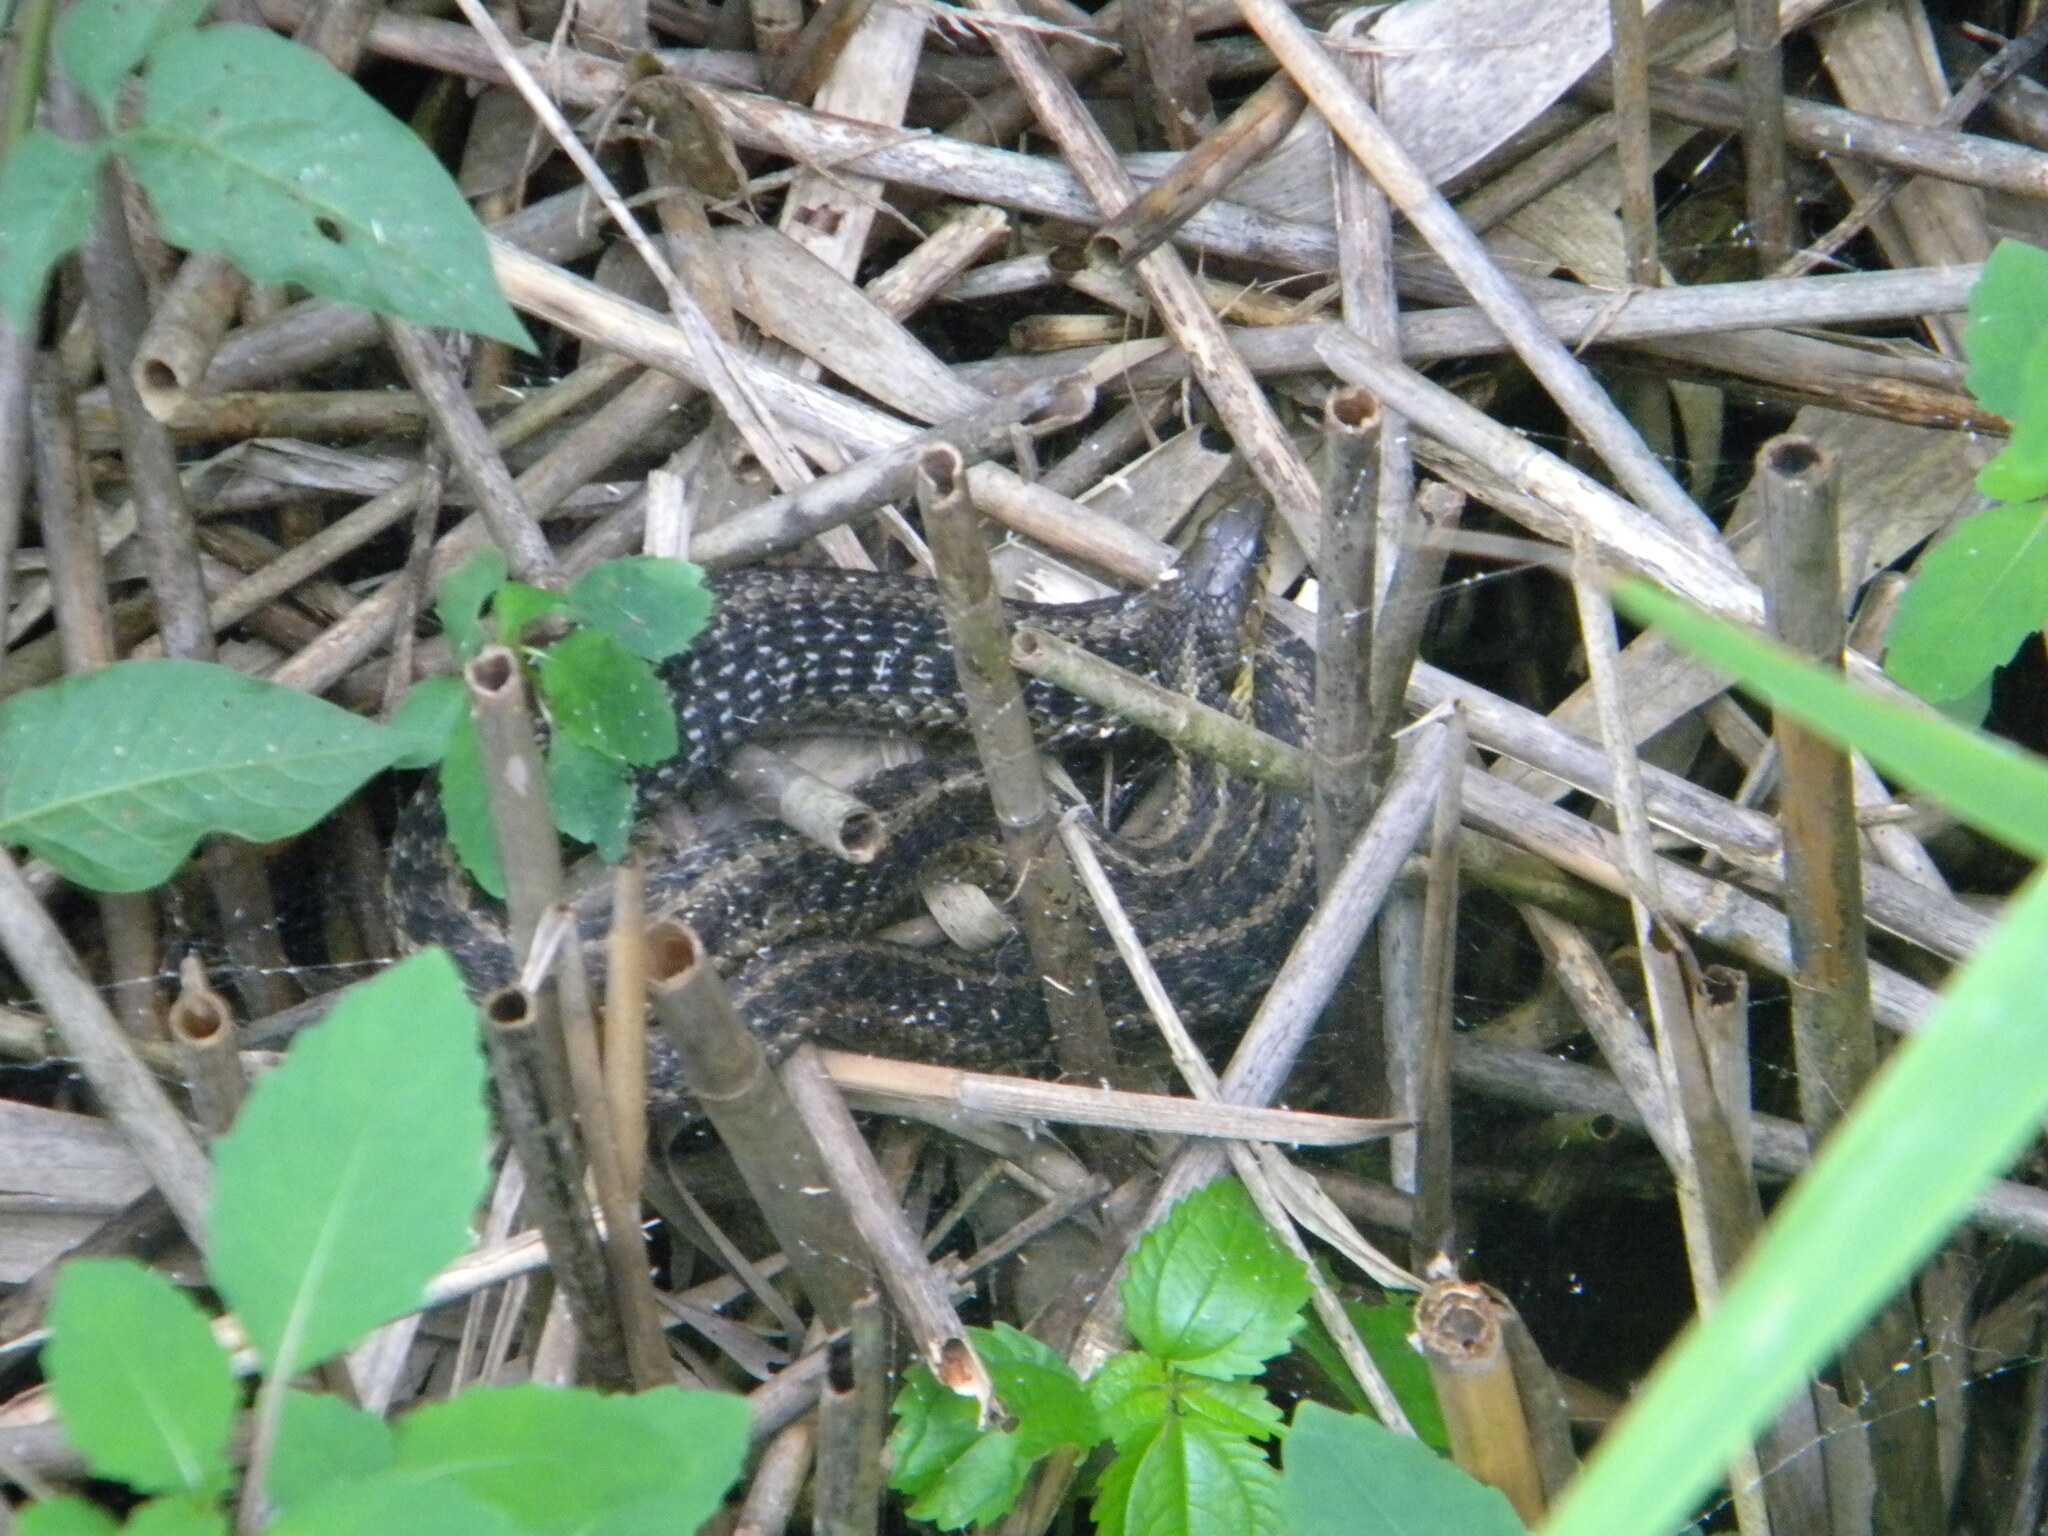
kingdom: Animalia
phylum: Chordata
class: Squamata
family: Colubridae
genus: Thamnophis
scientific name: Thamnophis sirtalis
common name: Common garter snake
